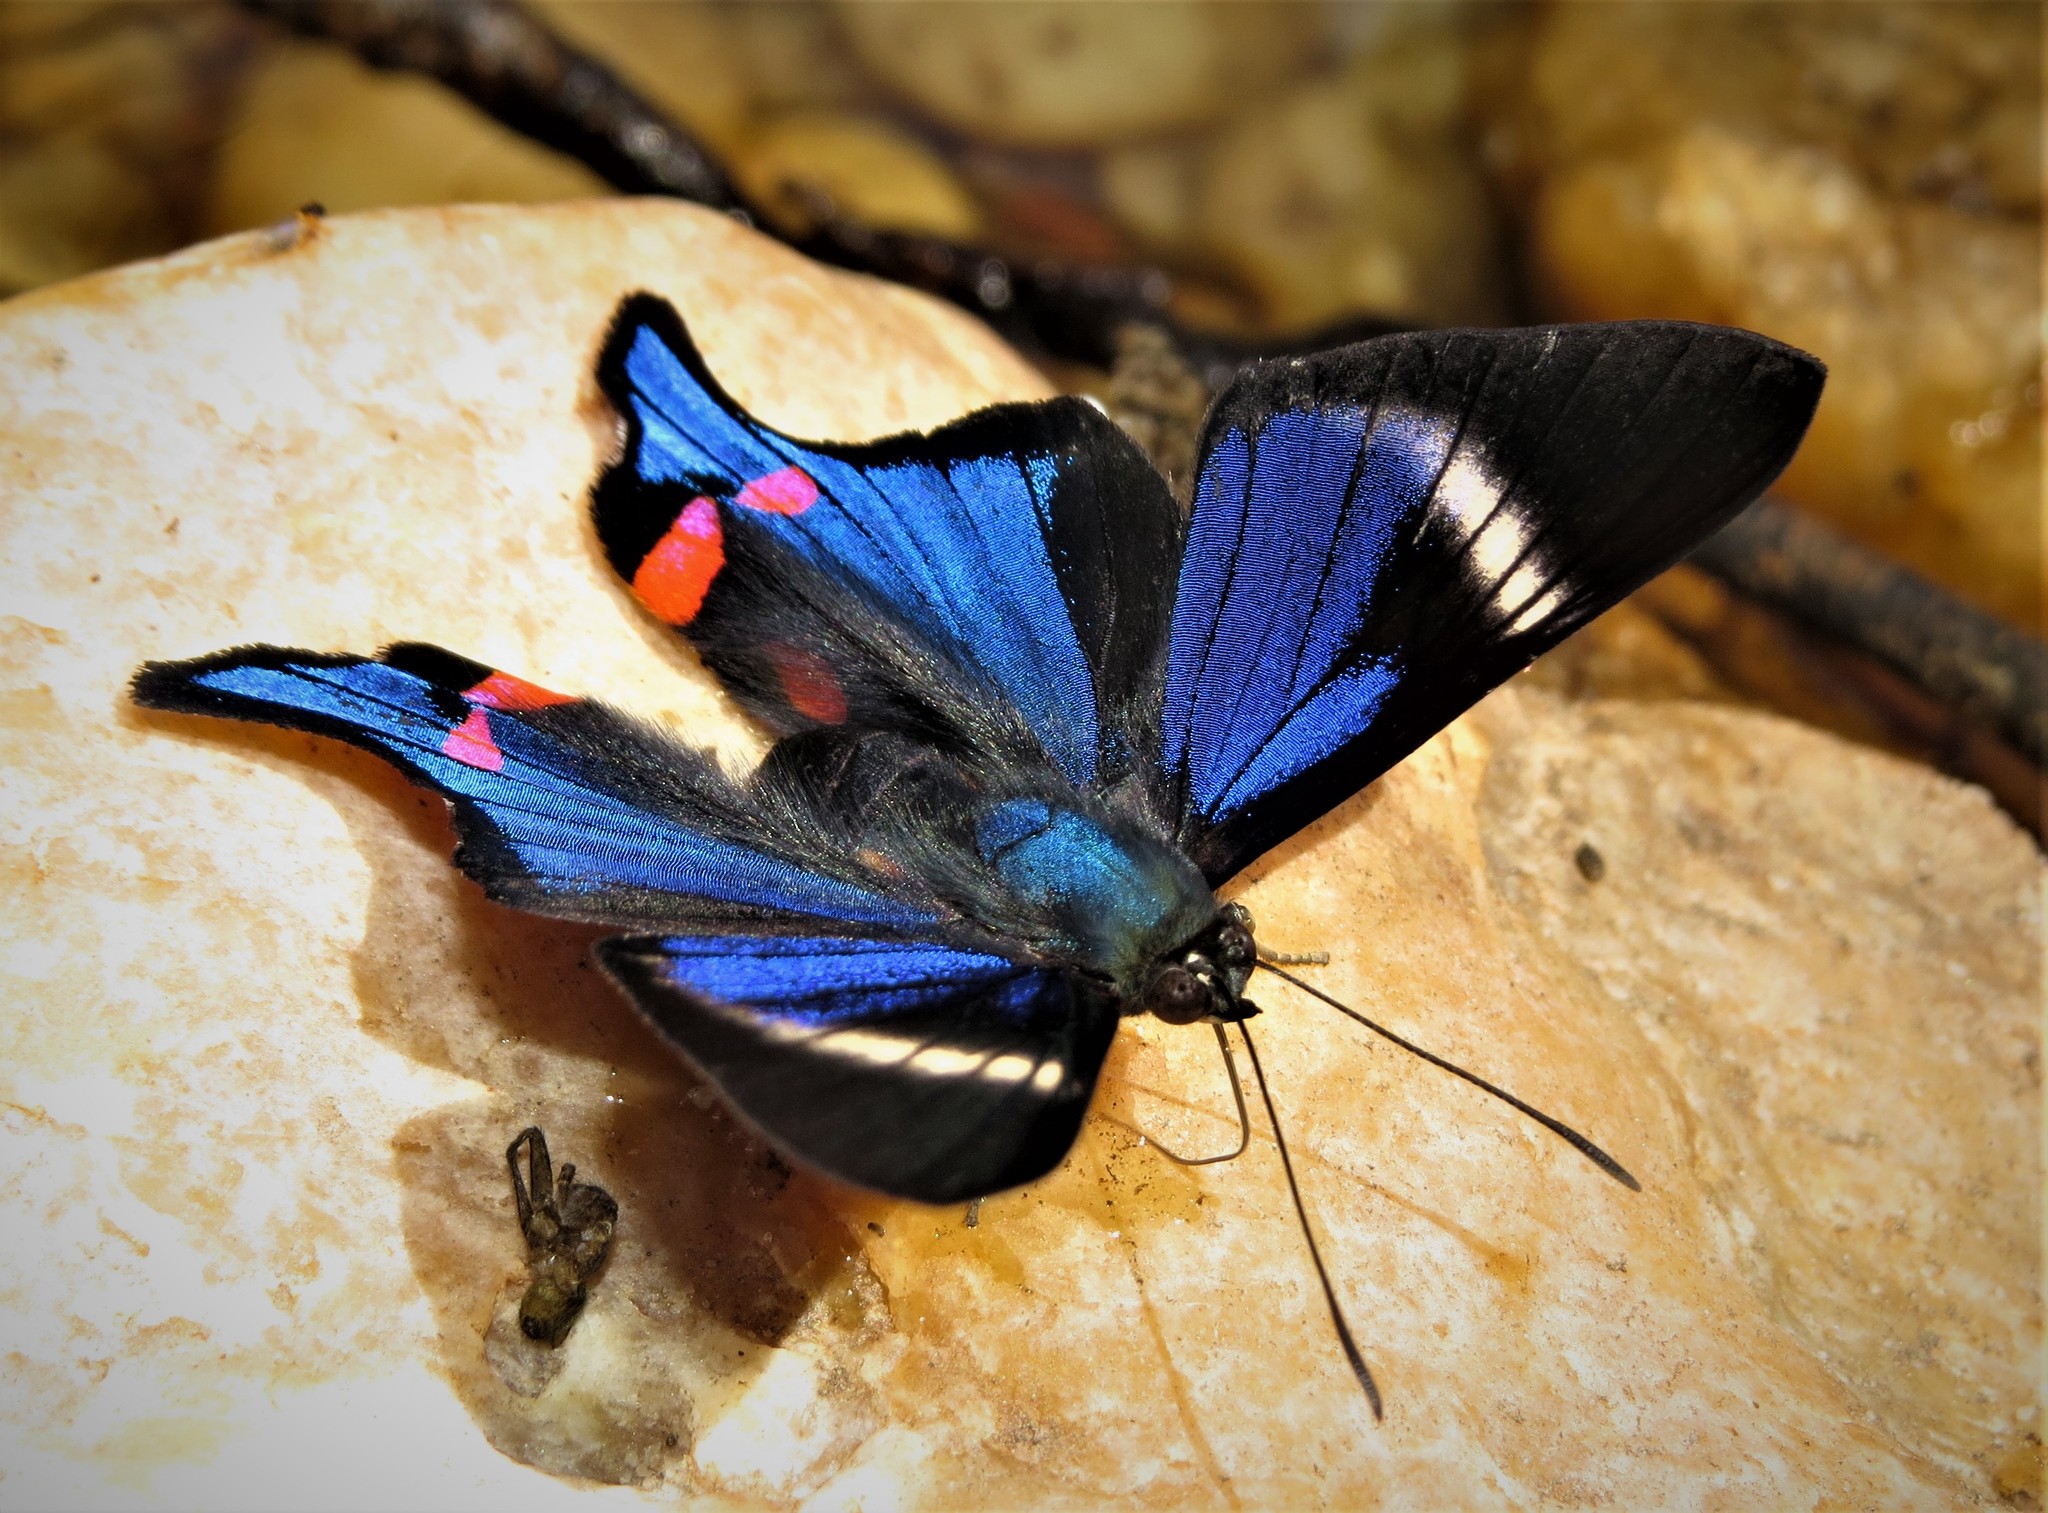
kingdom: Animalia
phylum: Arthropoda
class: Insecta
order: Lepidoptera
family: Riodinidae
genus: Rhetus
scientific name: Rhetus periander
